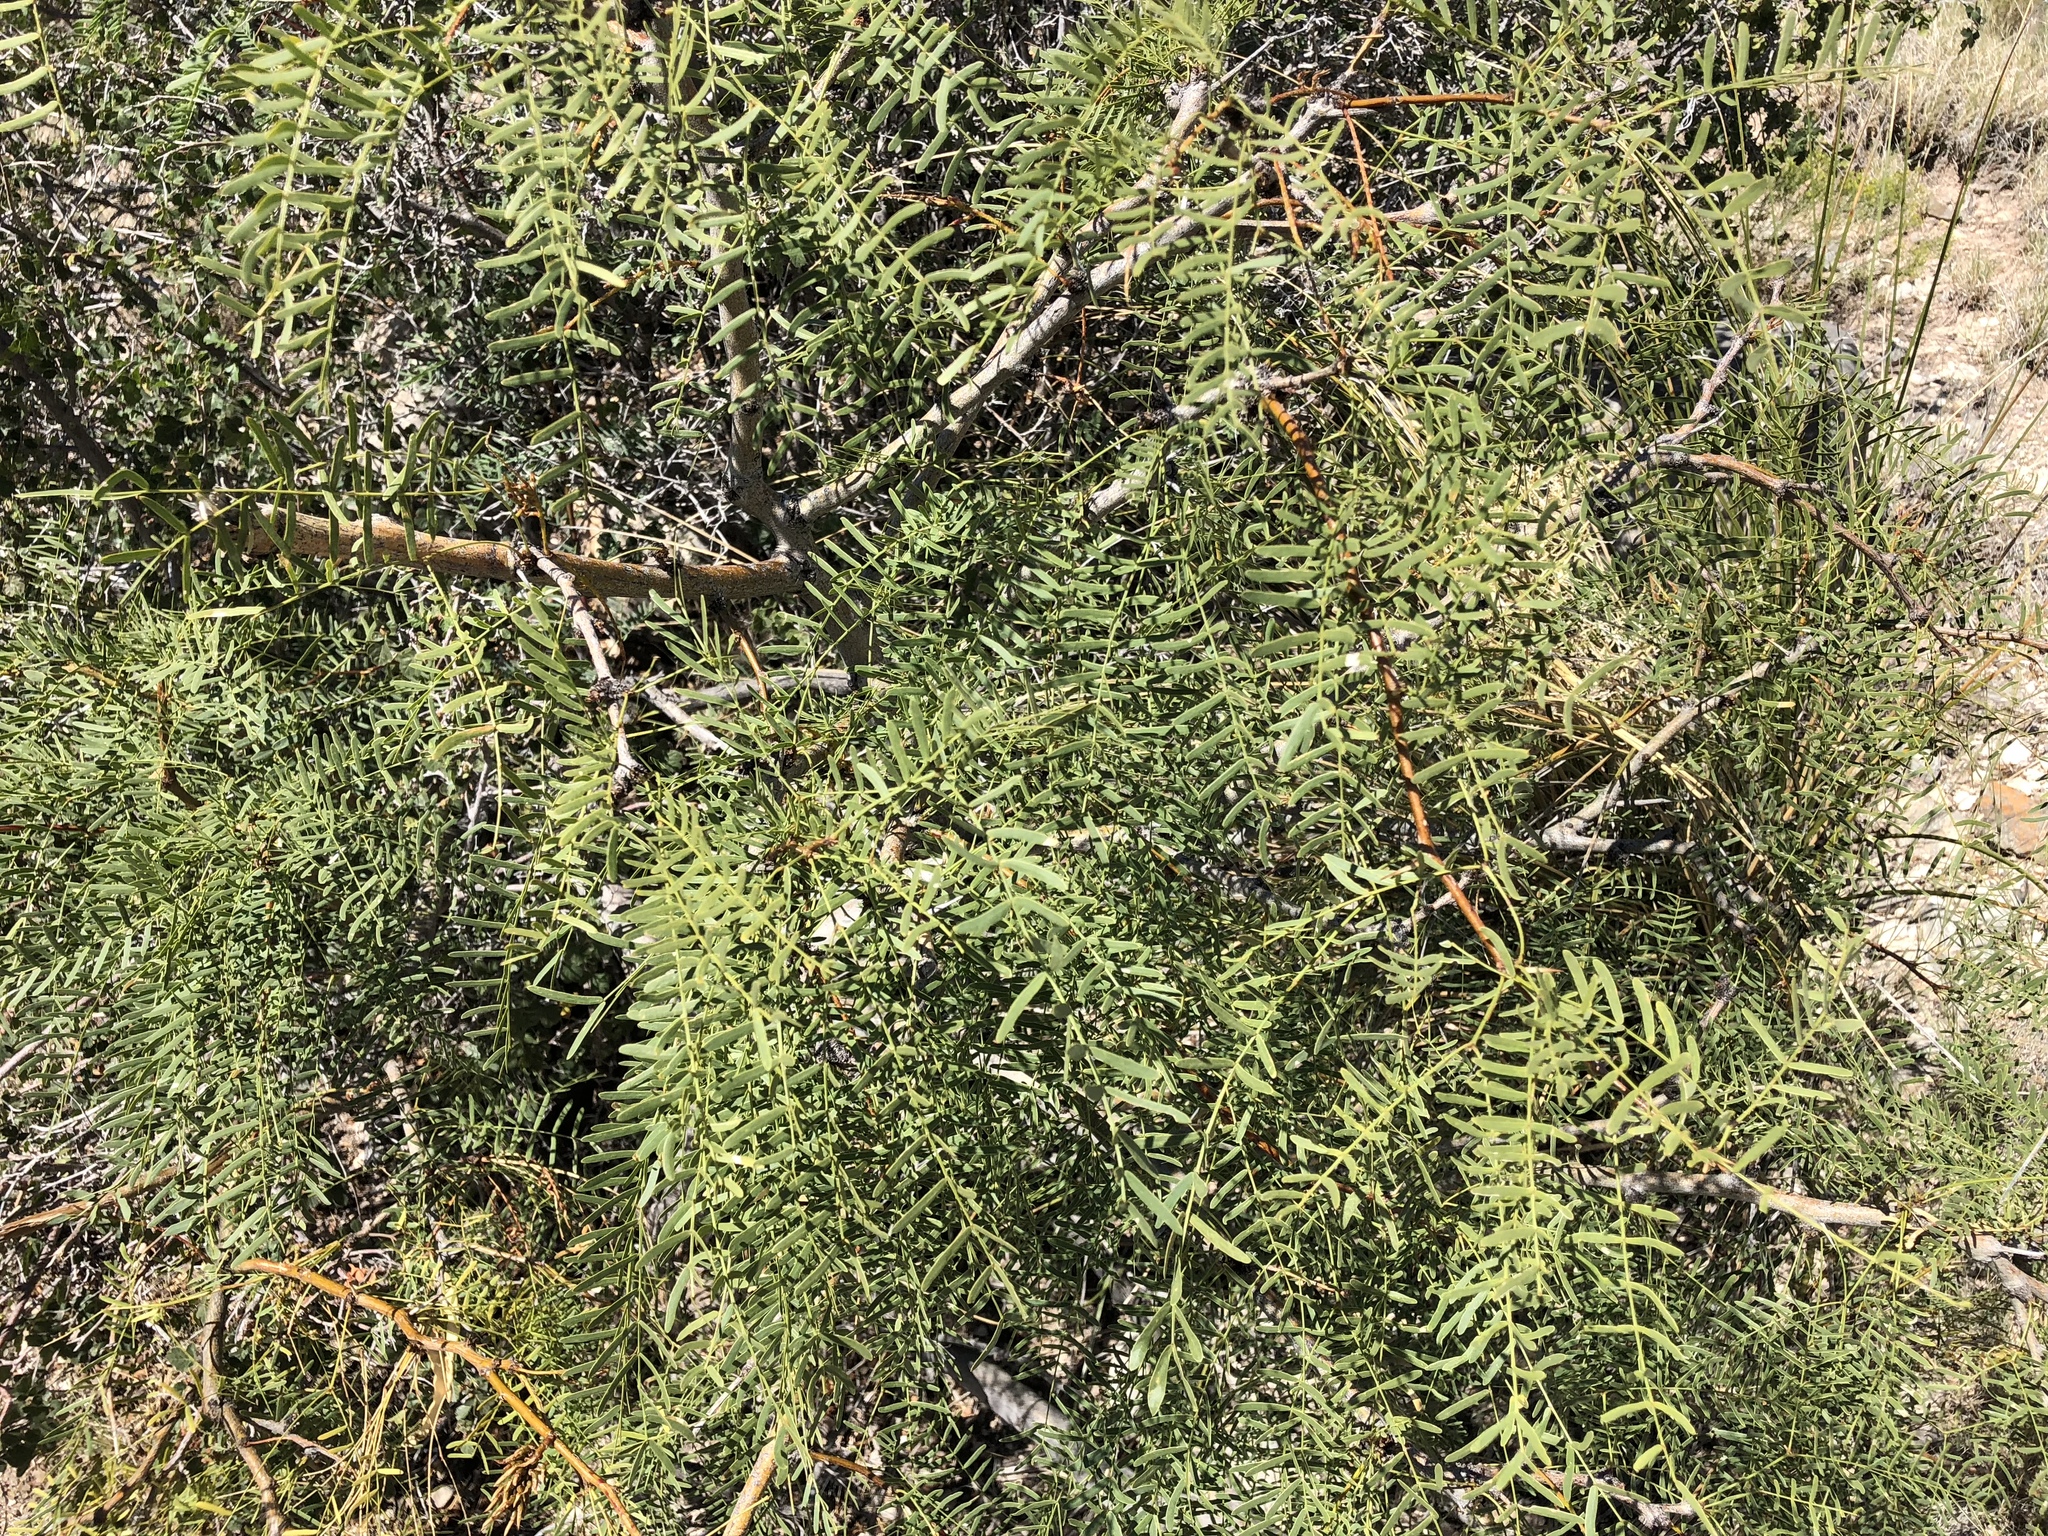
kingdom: Plantae
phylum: Tracheophyta
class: Magnoliopsida
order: Fabales
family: Fabaceae
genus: Prosopis
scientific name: Prosopis glandulosa
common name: Honey mesquite
